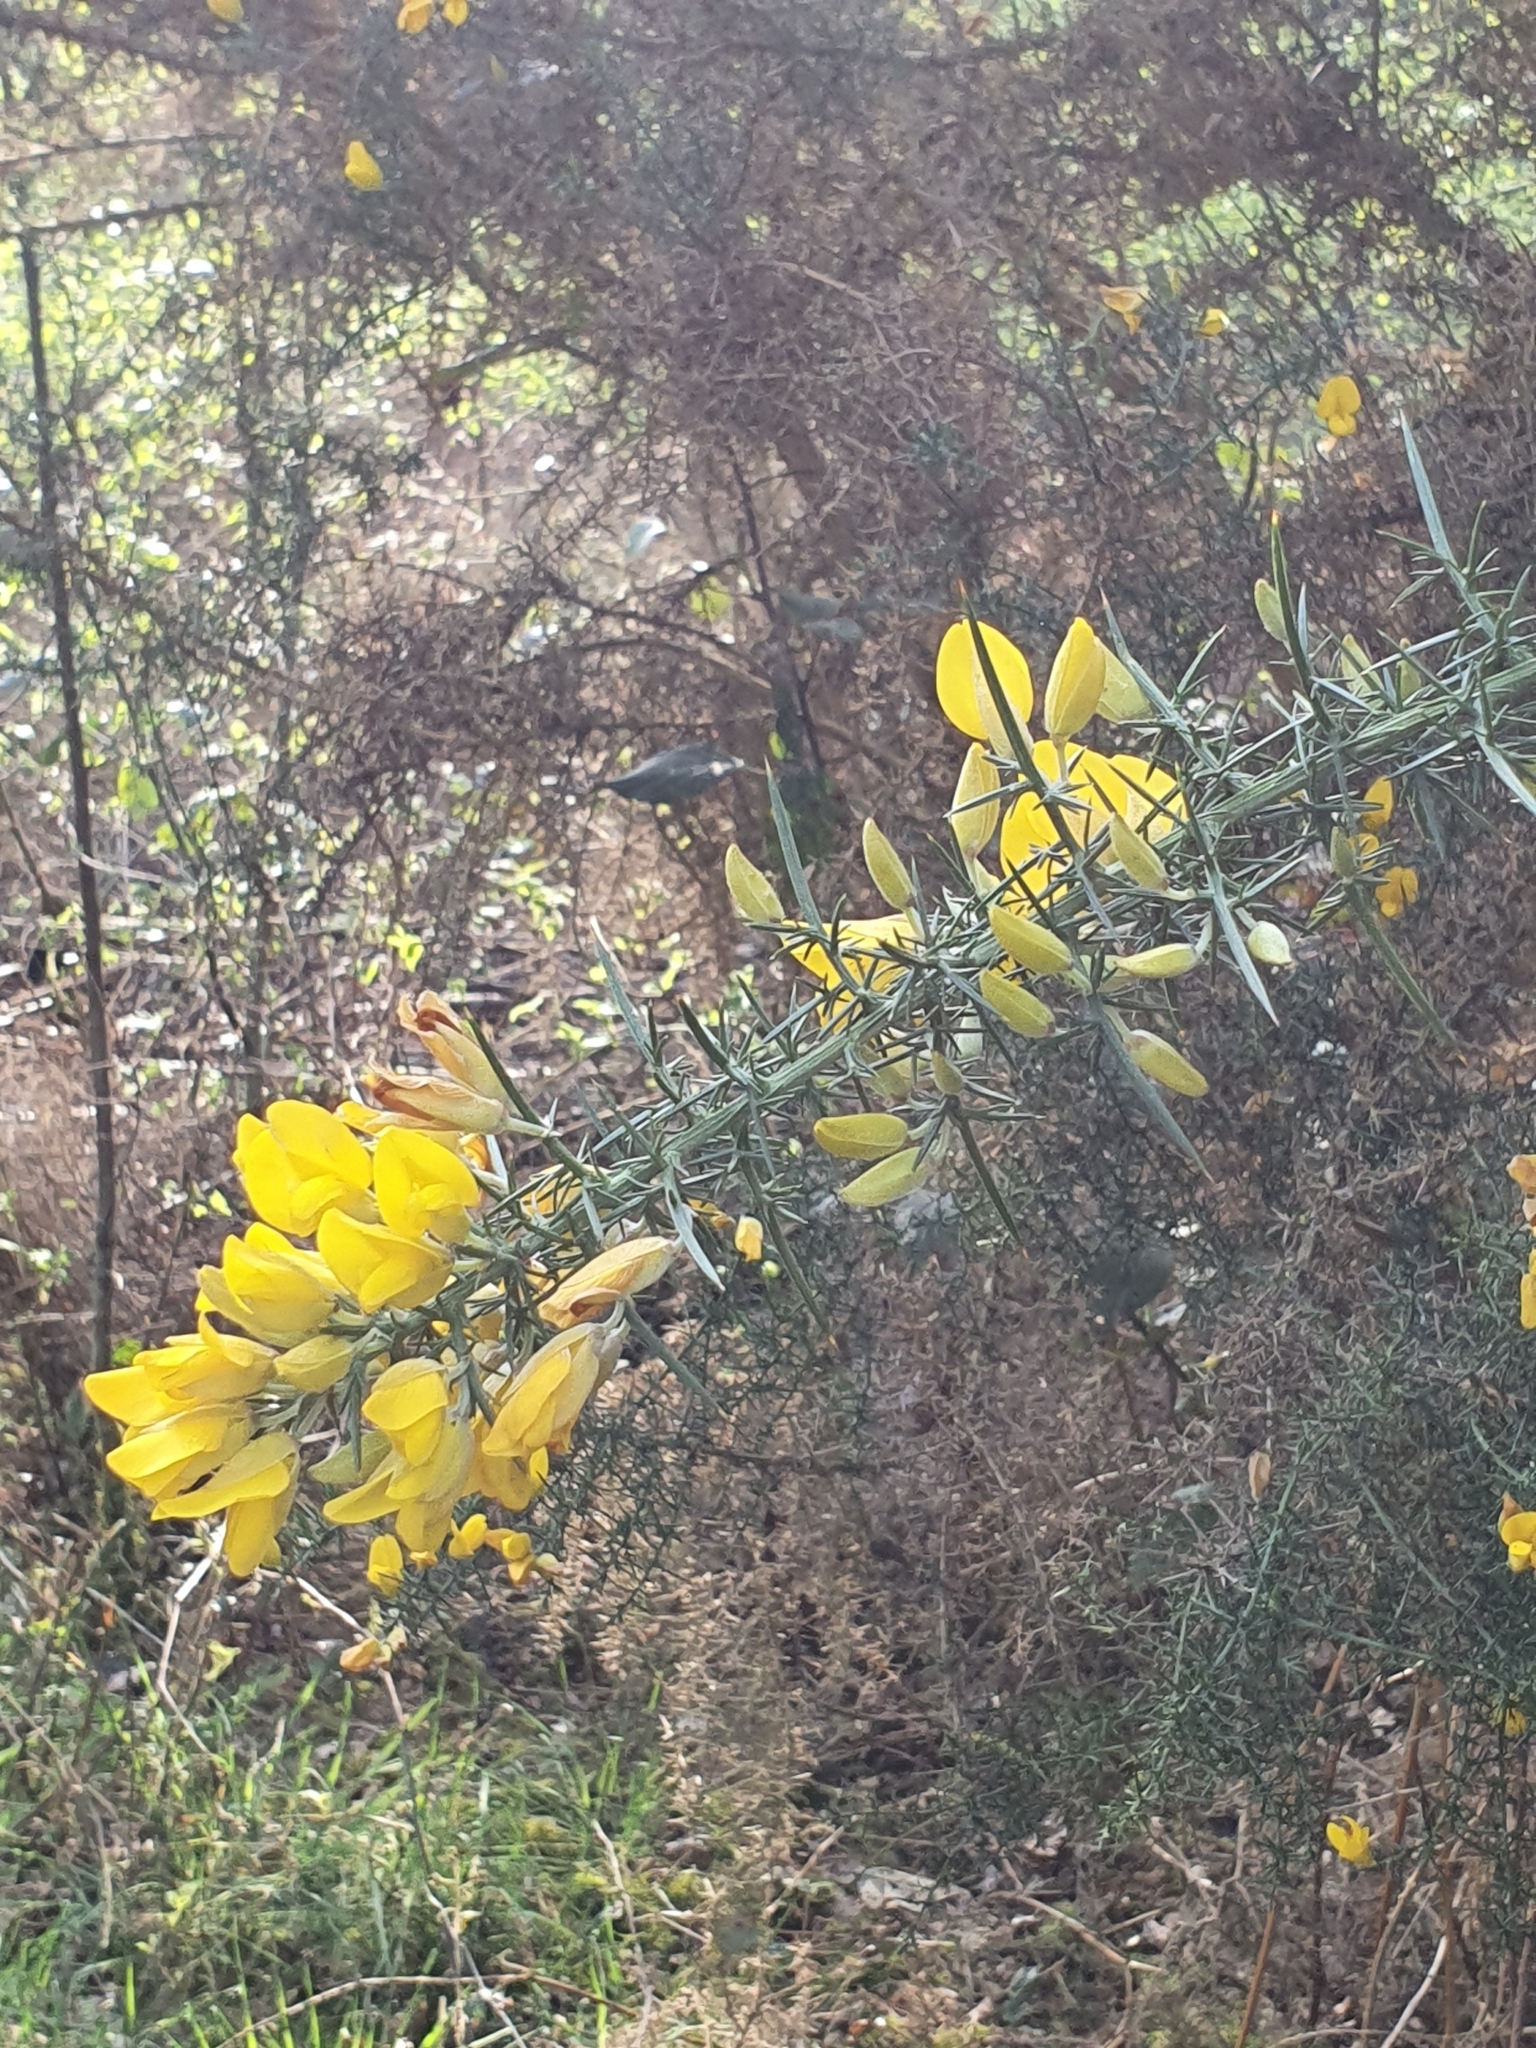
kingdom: Plantae
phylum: Tracheophyta
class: Magnoliopsida
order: Fabales
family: Fabaceae
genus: Ulex
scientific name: Ulex europaeus
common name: Common gorse
